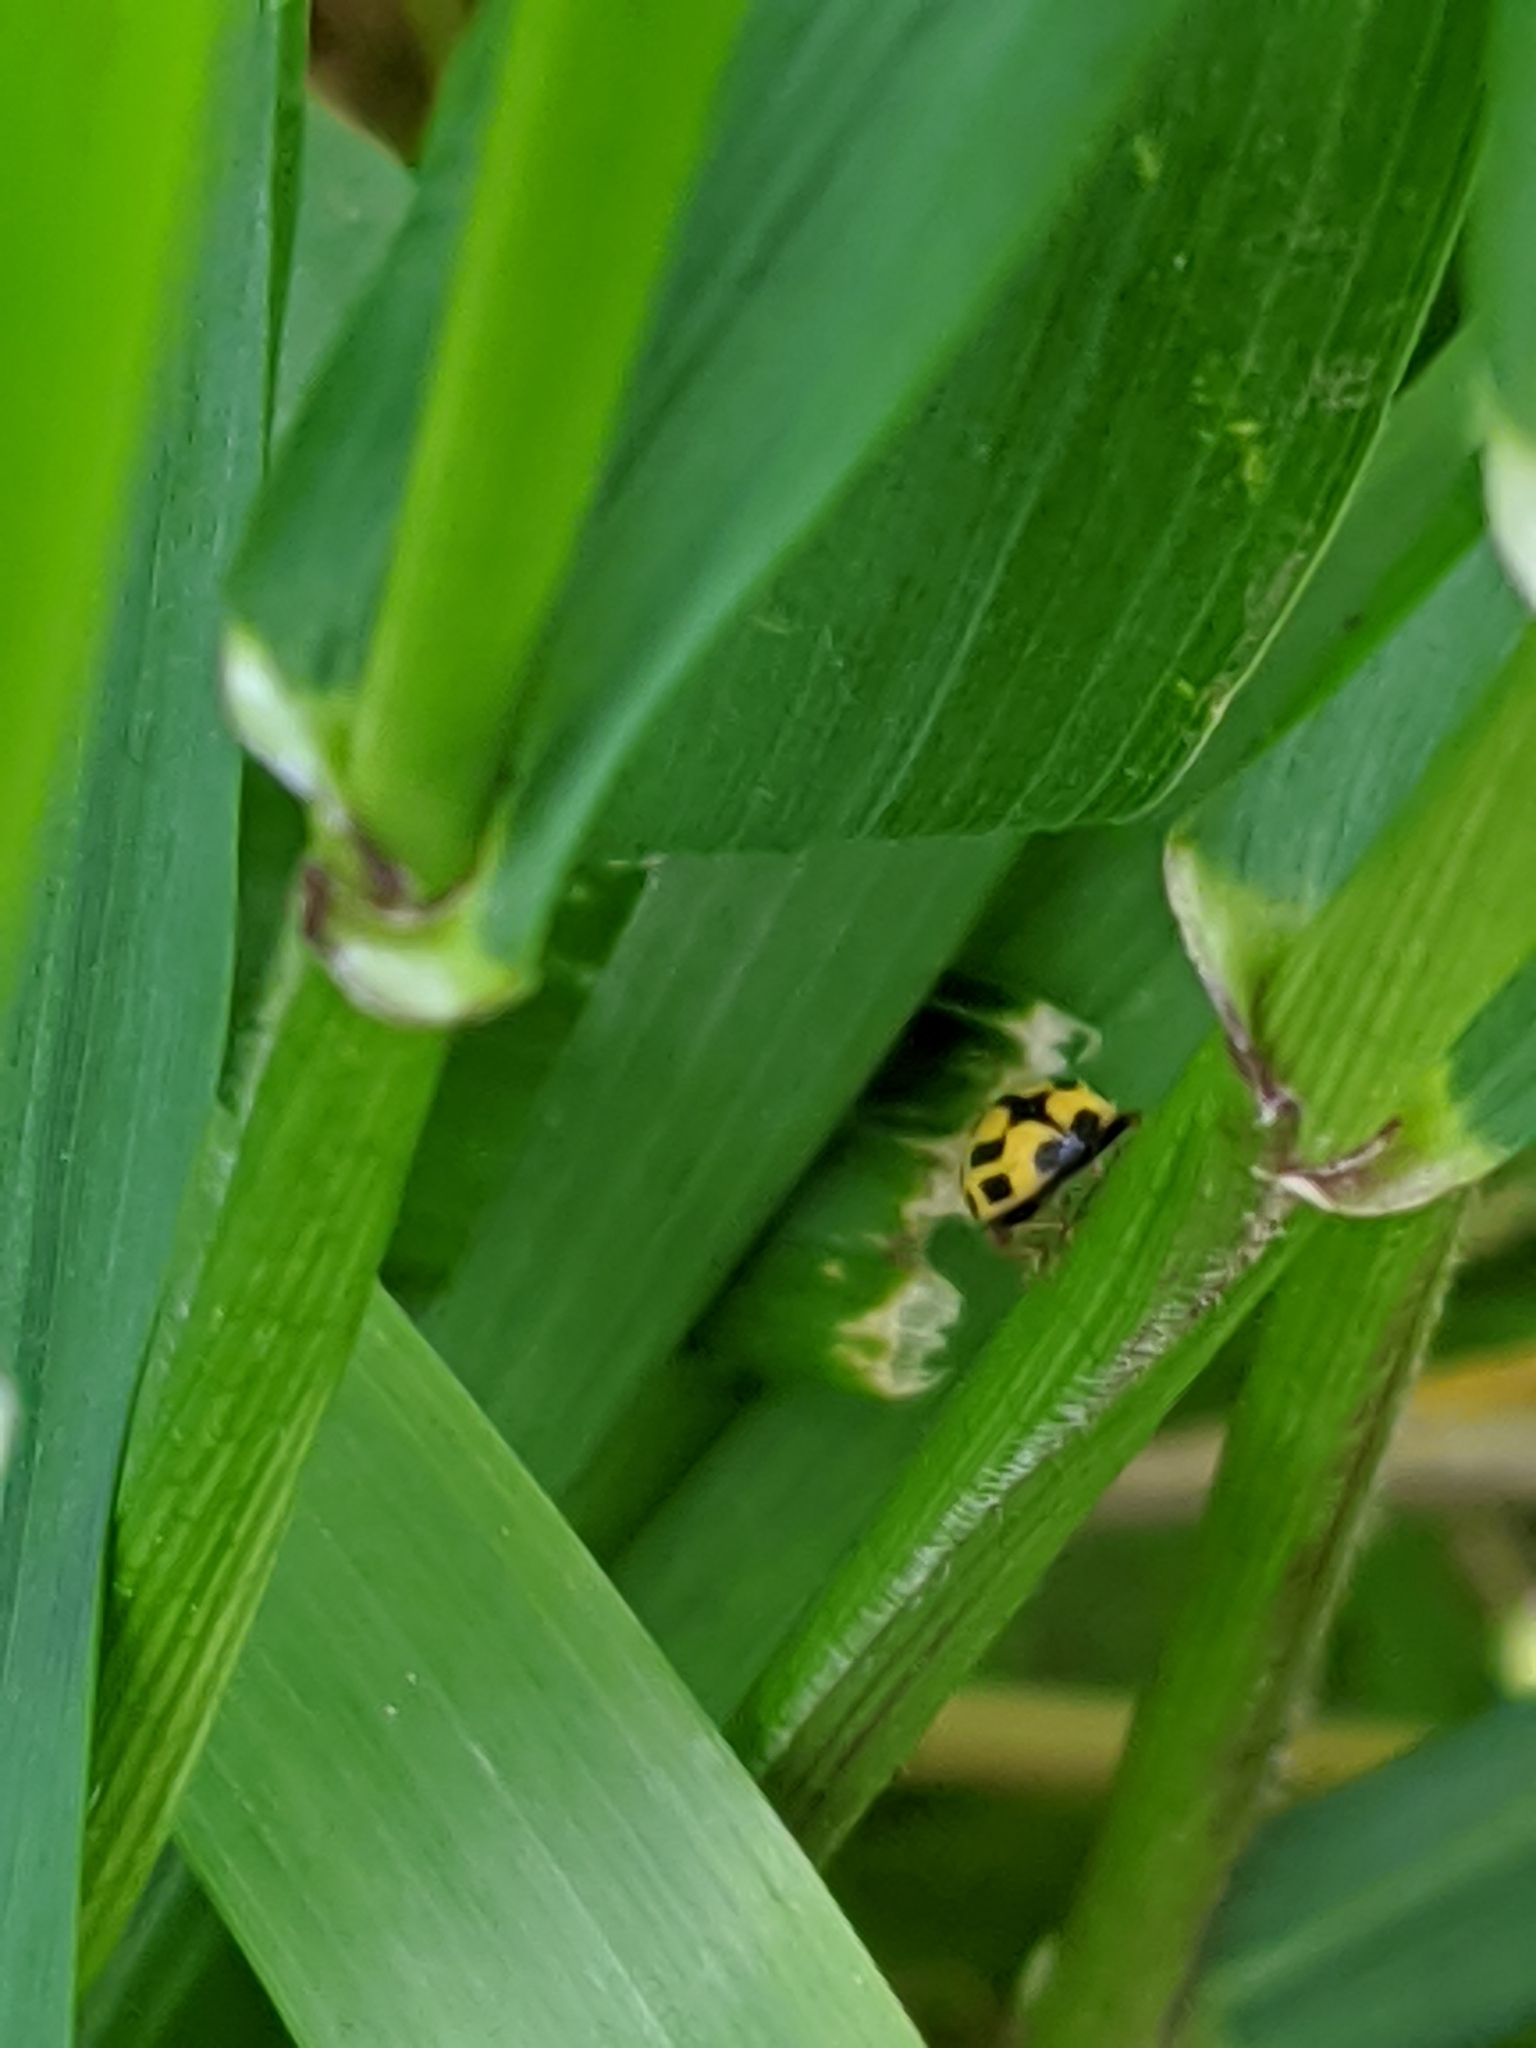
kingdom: Animalia
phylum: Arthropoda
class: Insecta
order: Coleoptera
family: Coccinellidae
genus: Propylaea
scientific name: Propylaea quatuordecimpunctata
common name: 14-spotted ladybird beetle
